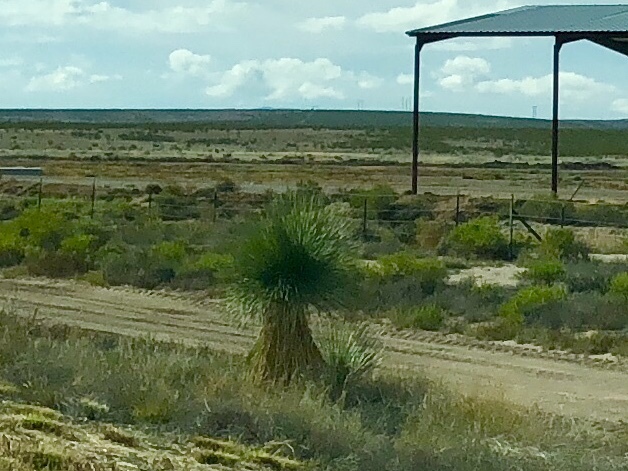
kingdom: Plantae
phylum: Tracheophyta
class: Liliopsida
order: Asparagales
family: Asparagaceae
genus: Yucca
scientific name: Yucca elata
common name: Palmella
